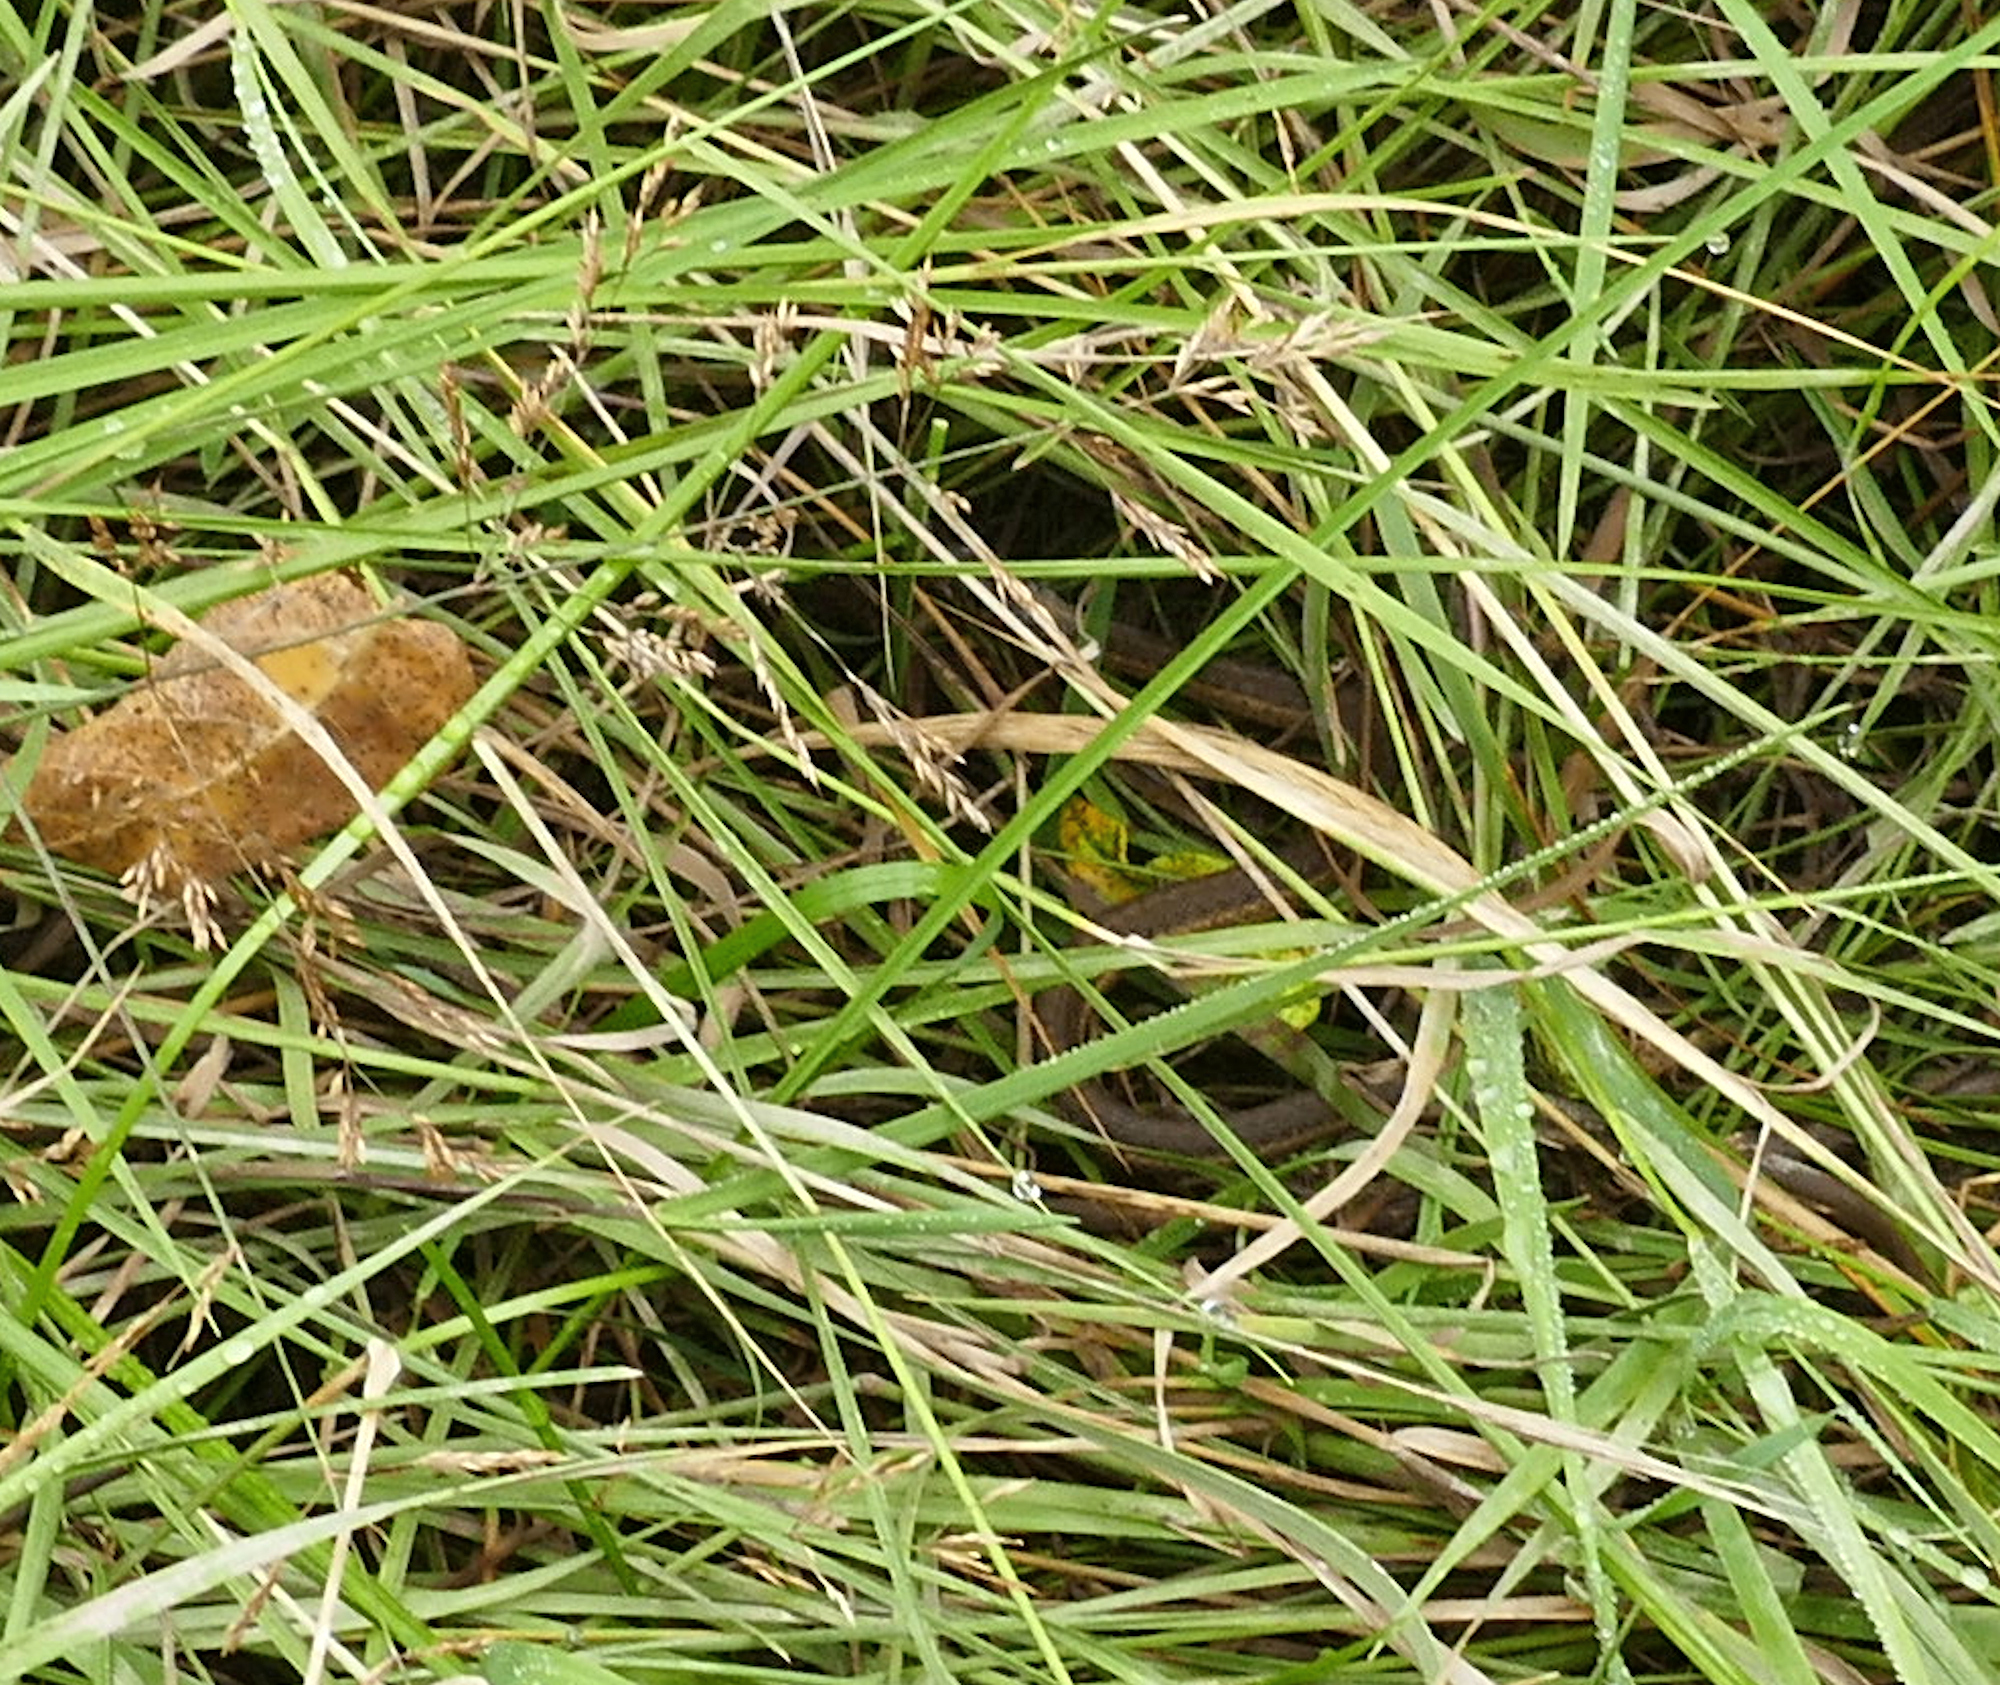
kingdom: Animalia
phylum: Chordata
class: Squamata
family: Colubridae
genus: Thamnophis
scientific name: Thamnophis elegans
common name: Western terrestrial garter snake
